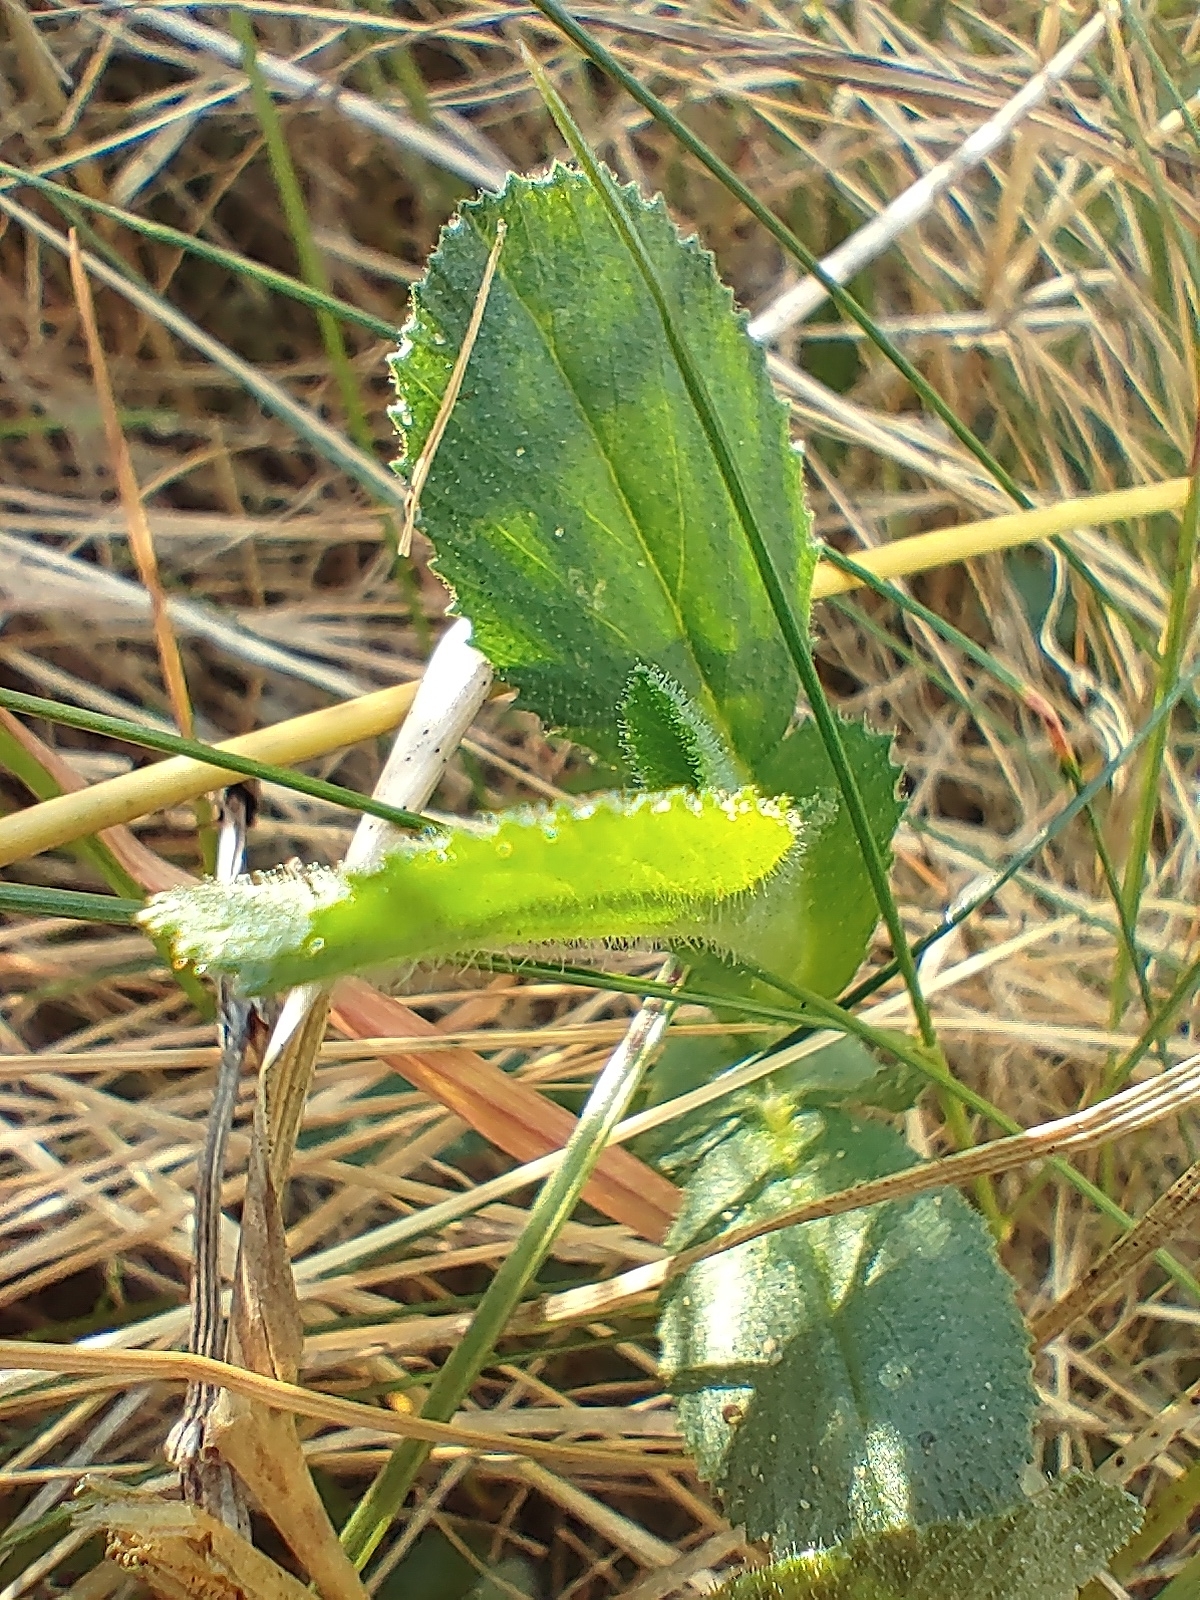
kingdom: Plantae
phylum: Tracheophyta
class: Magnoliopsida
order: Fabales
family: Fabaceae
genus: Ononis
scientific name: Ononis spinosa
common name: Spiny restharrow
